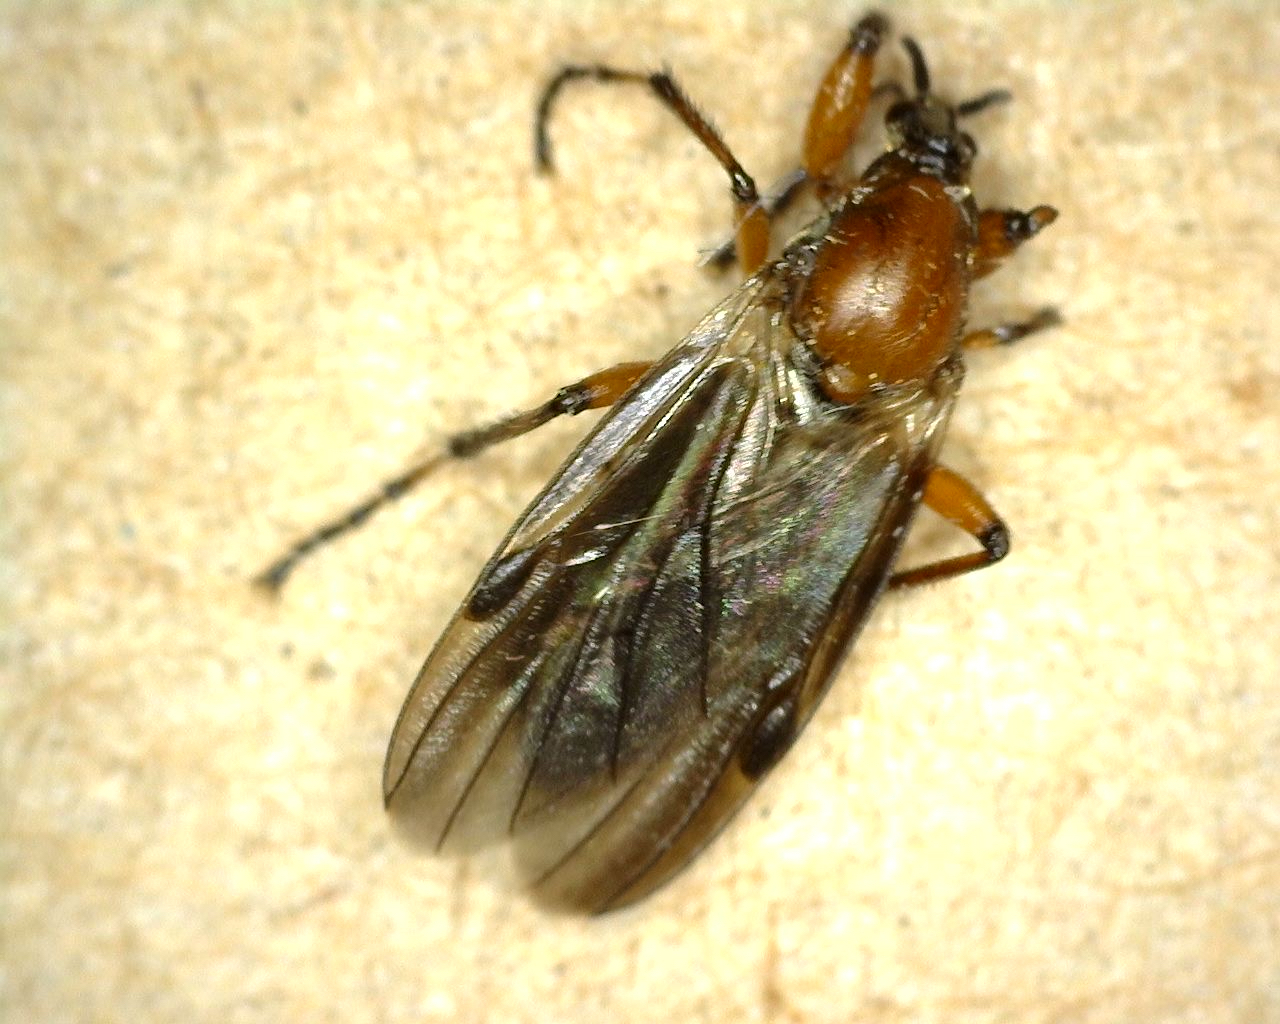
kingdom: Animalia
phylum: Arthropoda
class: Insecta
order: Diptera
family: Bibionidae
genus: Bibio
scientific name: Bibio articulatus
